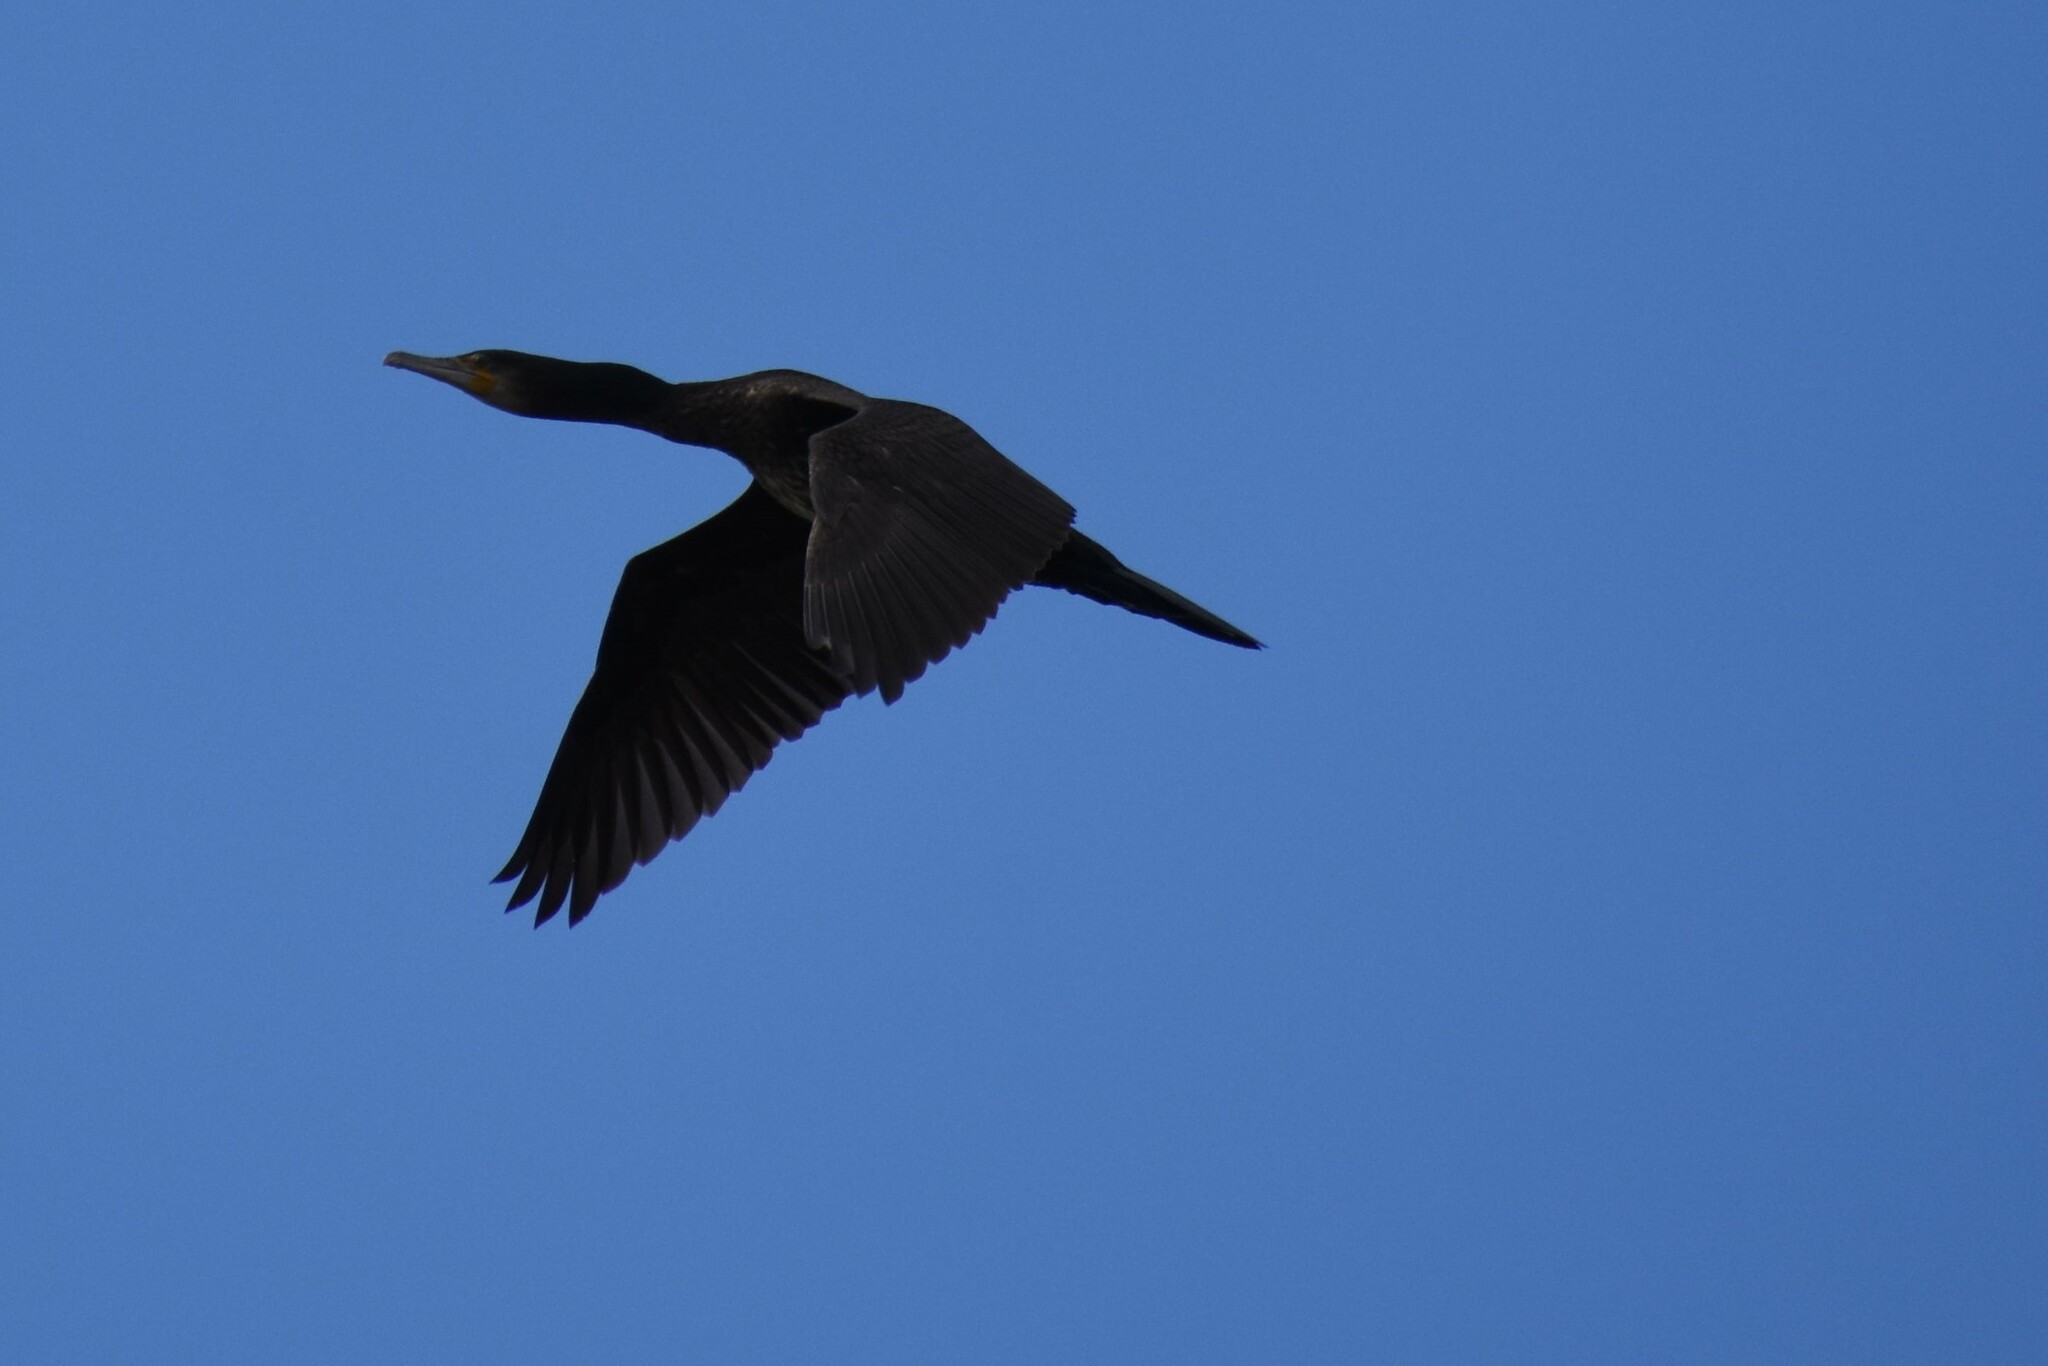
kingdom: Animalia
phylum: Chordata
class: Aves
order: Suliformes
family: Phalacrocoracidae
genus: Phalacrocorax
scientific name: Phalacrocorax carbo
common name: Great cormorant
